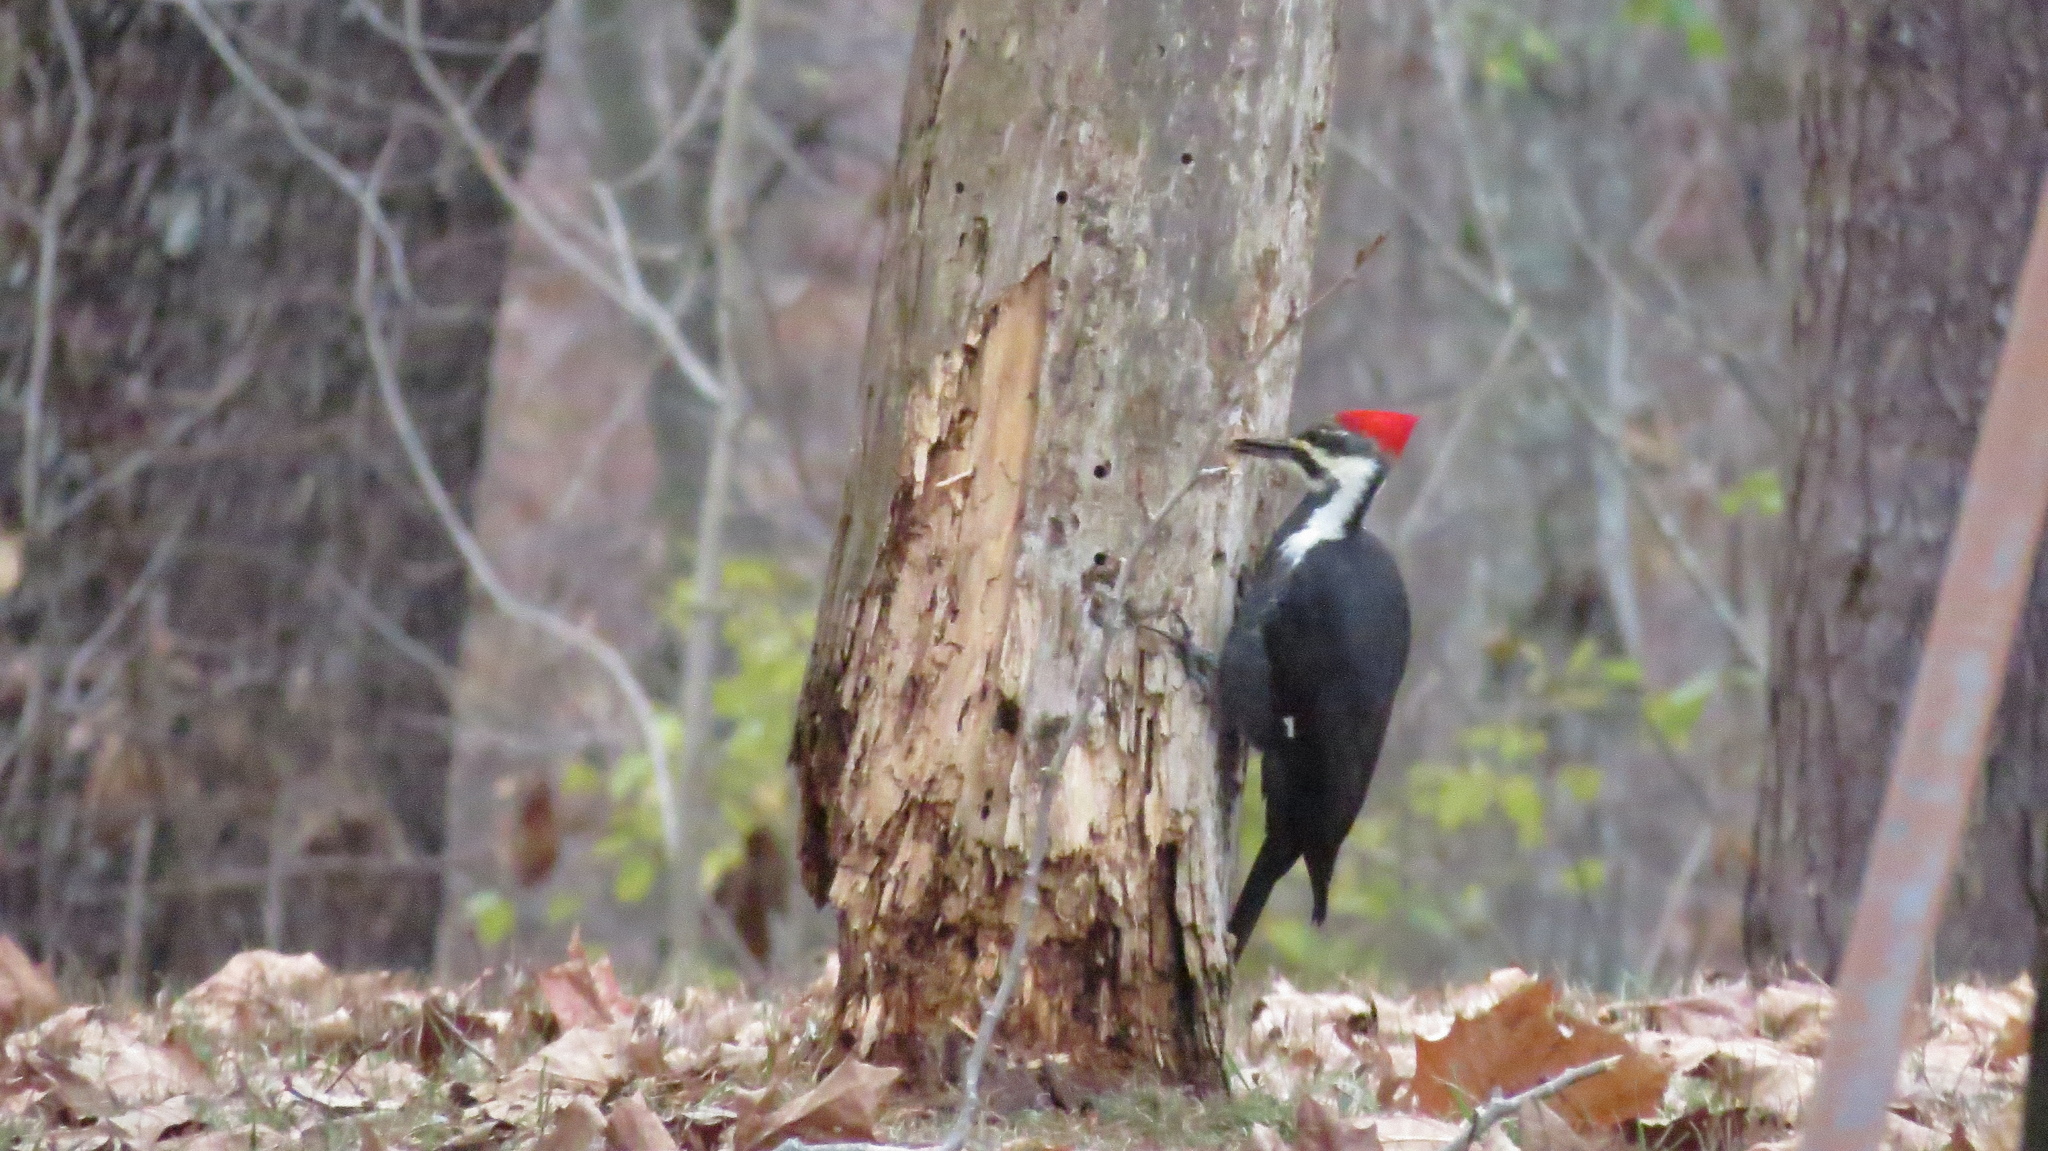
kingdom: Animalia
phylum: Chordata
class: Aves
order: Piciformes
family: Picidae
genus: Dryocopus
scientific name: Dryocopus pileatus
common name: Pileated woodpecker
